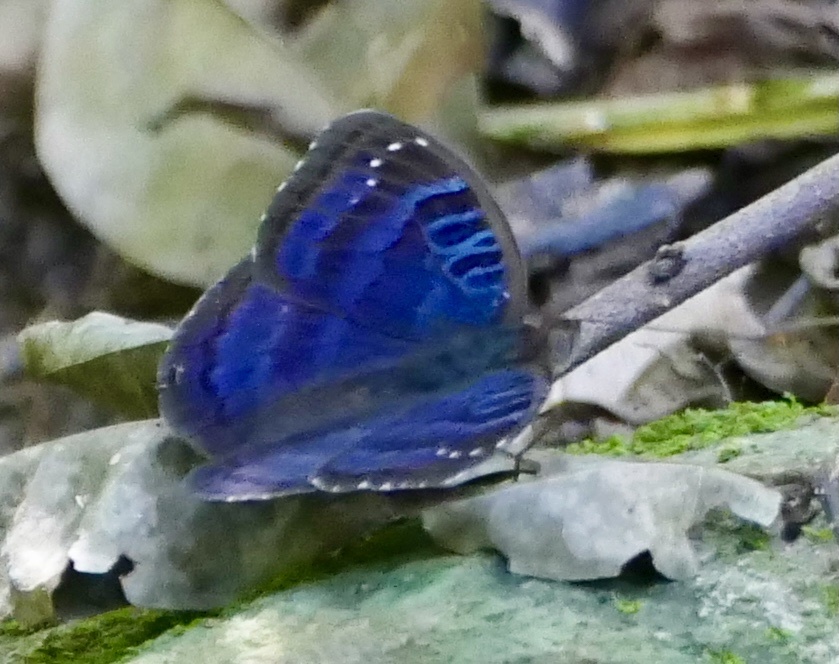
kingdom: Animalia
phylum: Arthropoda
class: Insecta
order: Lepidoptera
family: Nymphalidae
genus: Euriphene
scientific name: Euriphene barombina
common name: Common nymph
